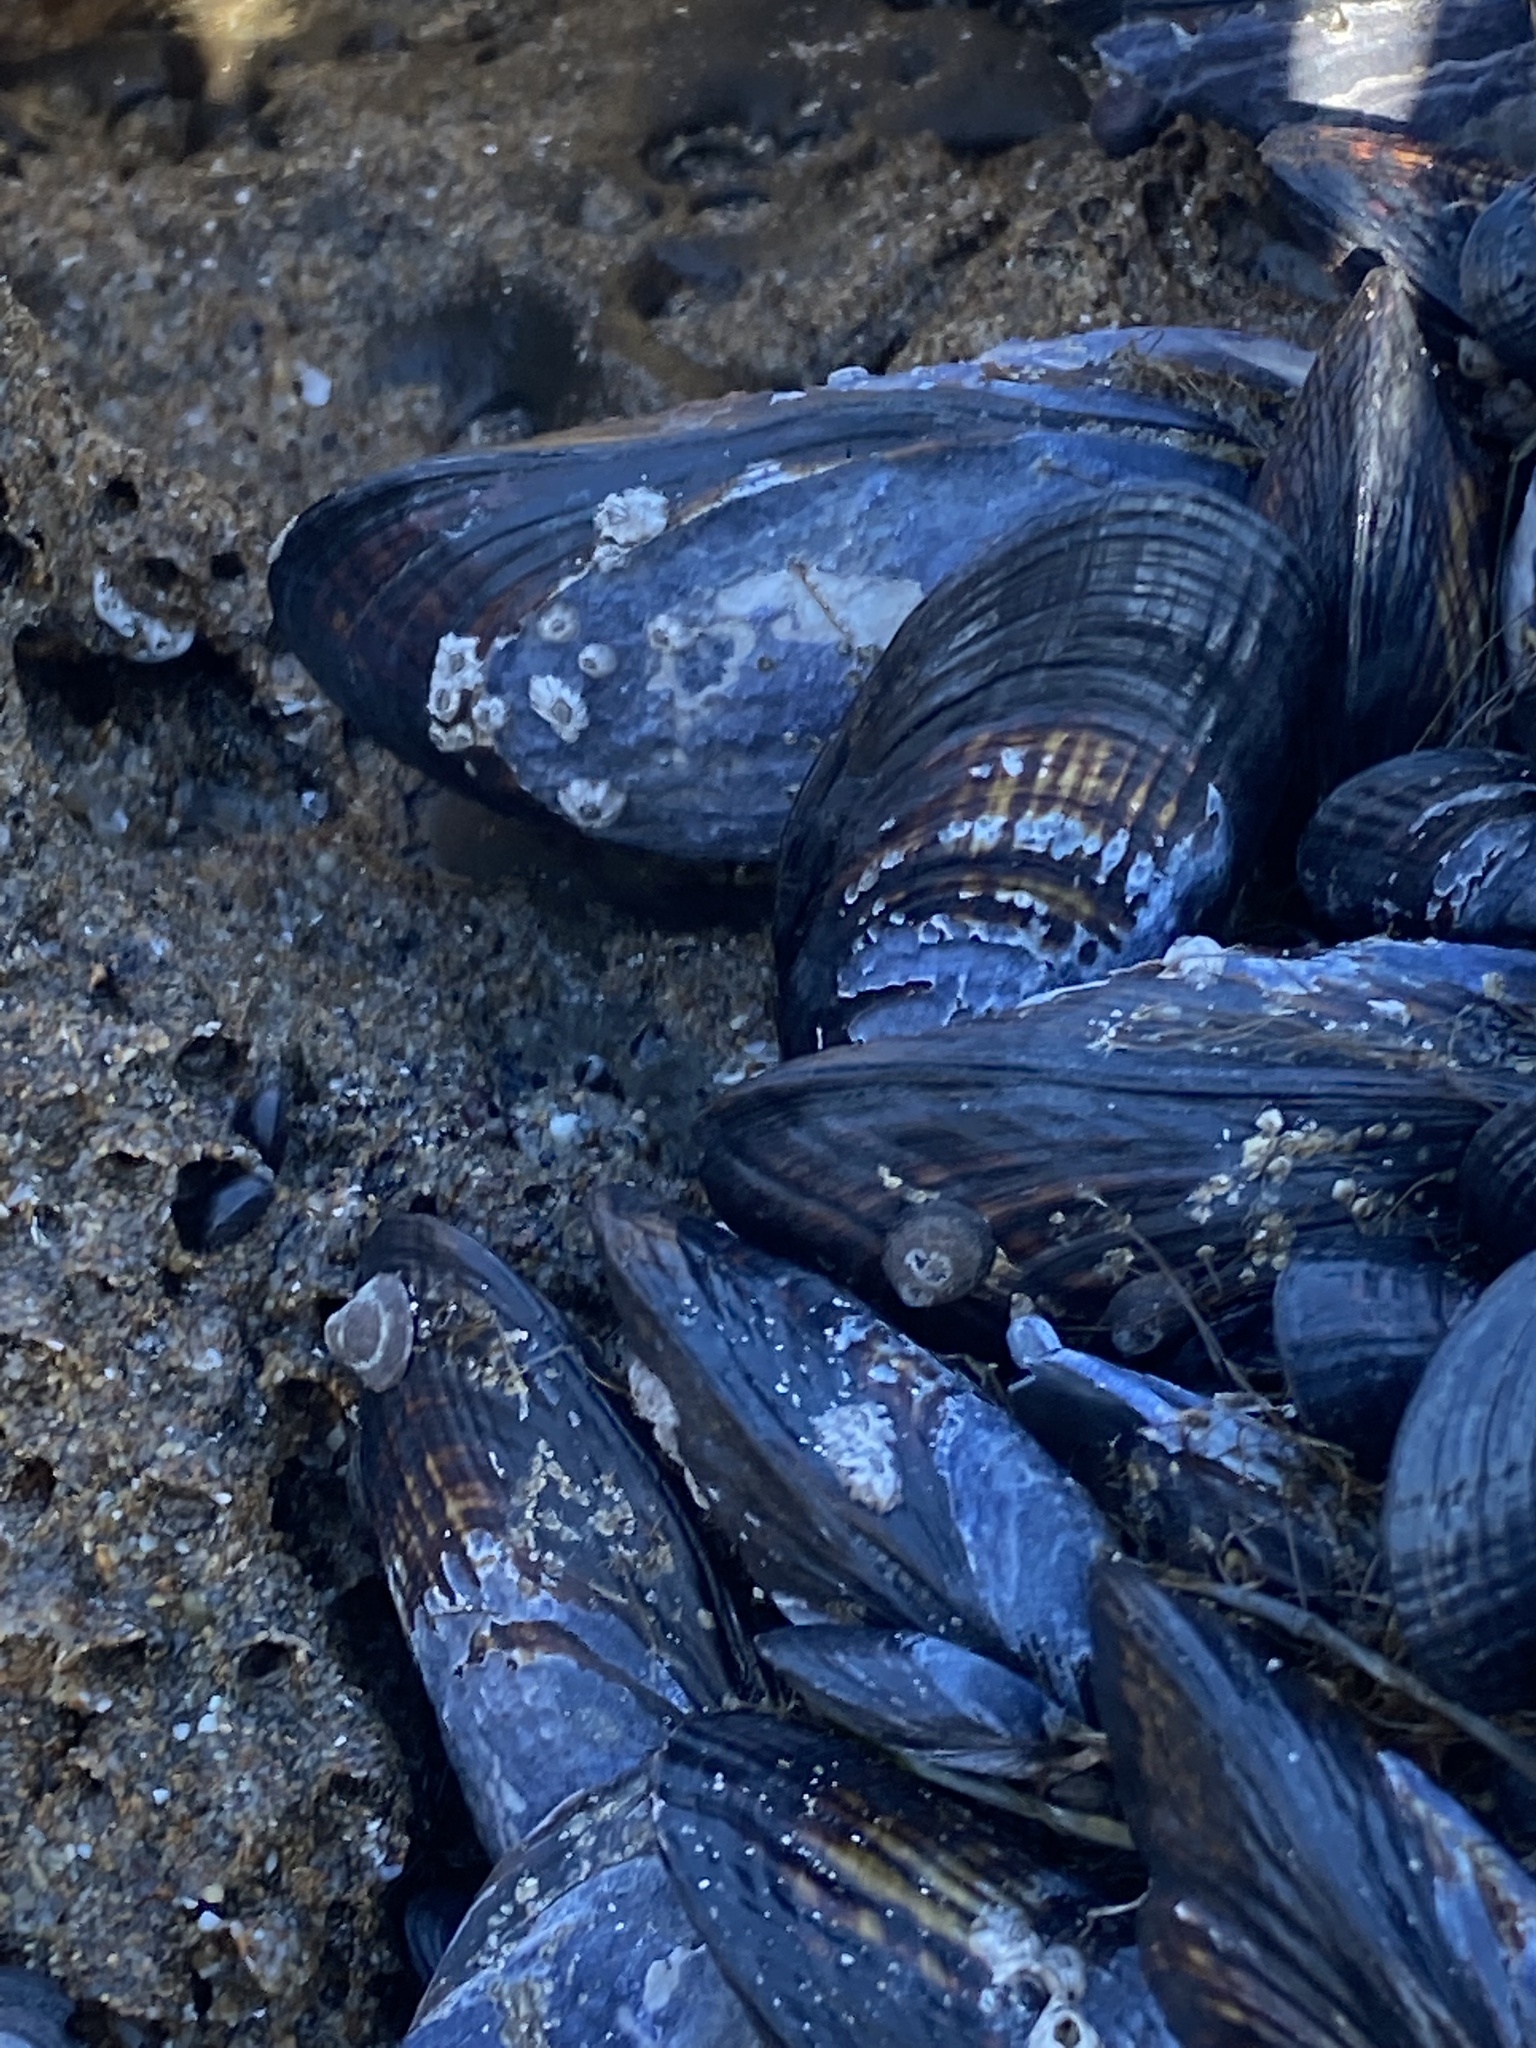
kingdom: Animalia
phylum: Mollusca
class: Bivalvia
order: Mytilida
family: Mytilidae
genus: Mytilus
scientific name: Mytilus californianus
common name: California mussel
